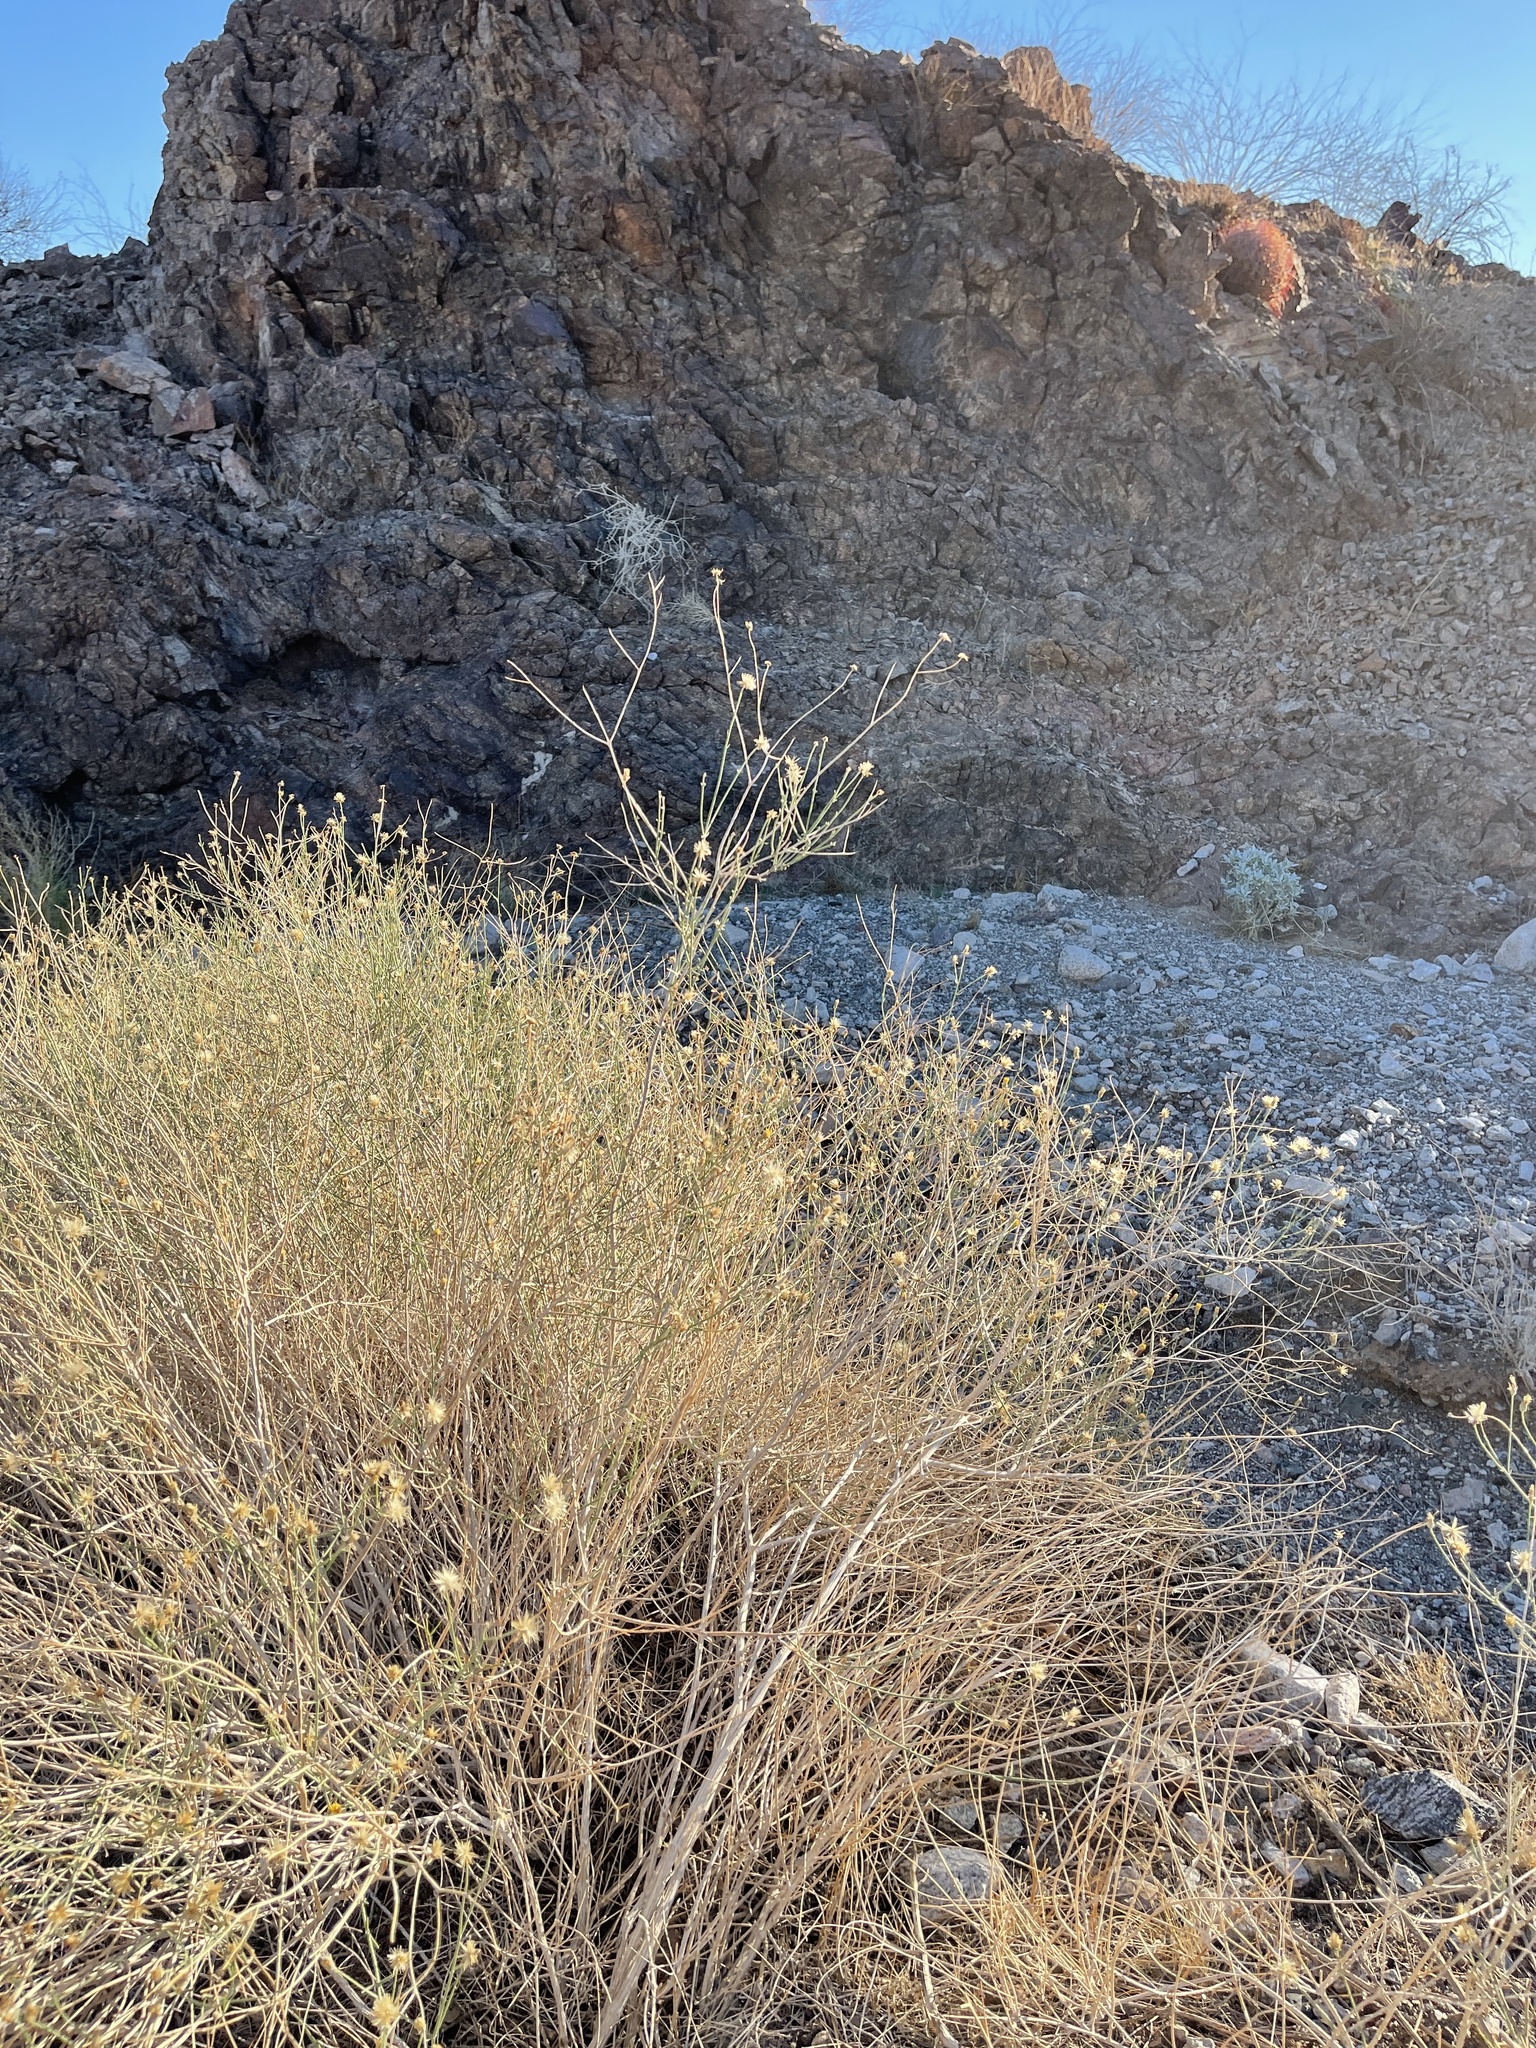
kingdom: Plantae
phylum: Tracheophyta
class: Magnoliopsida
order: Asterales
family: Asteraceae
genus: Bebbia
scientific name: Bebbia juncea
